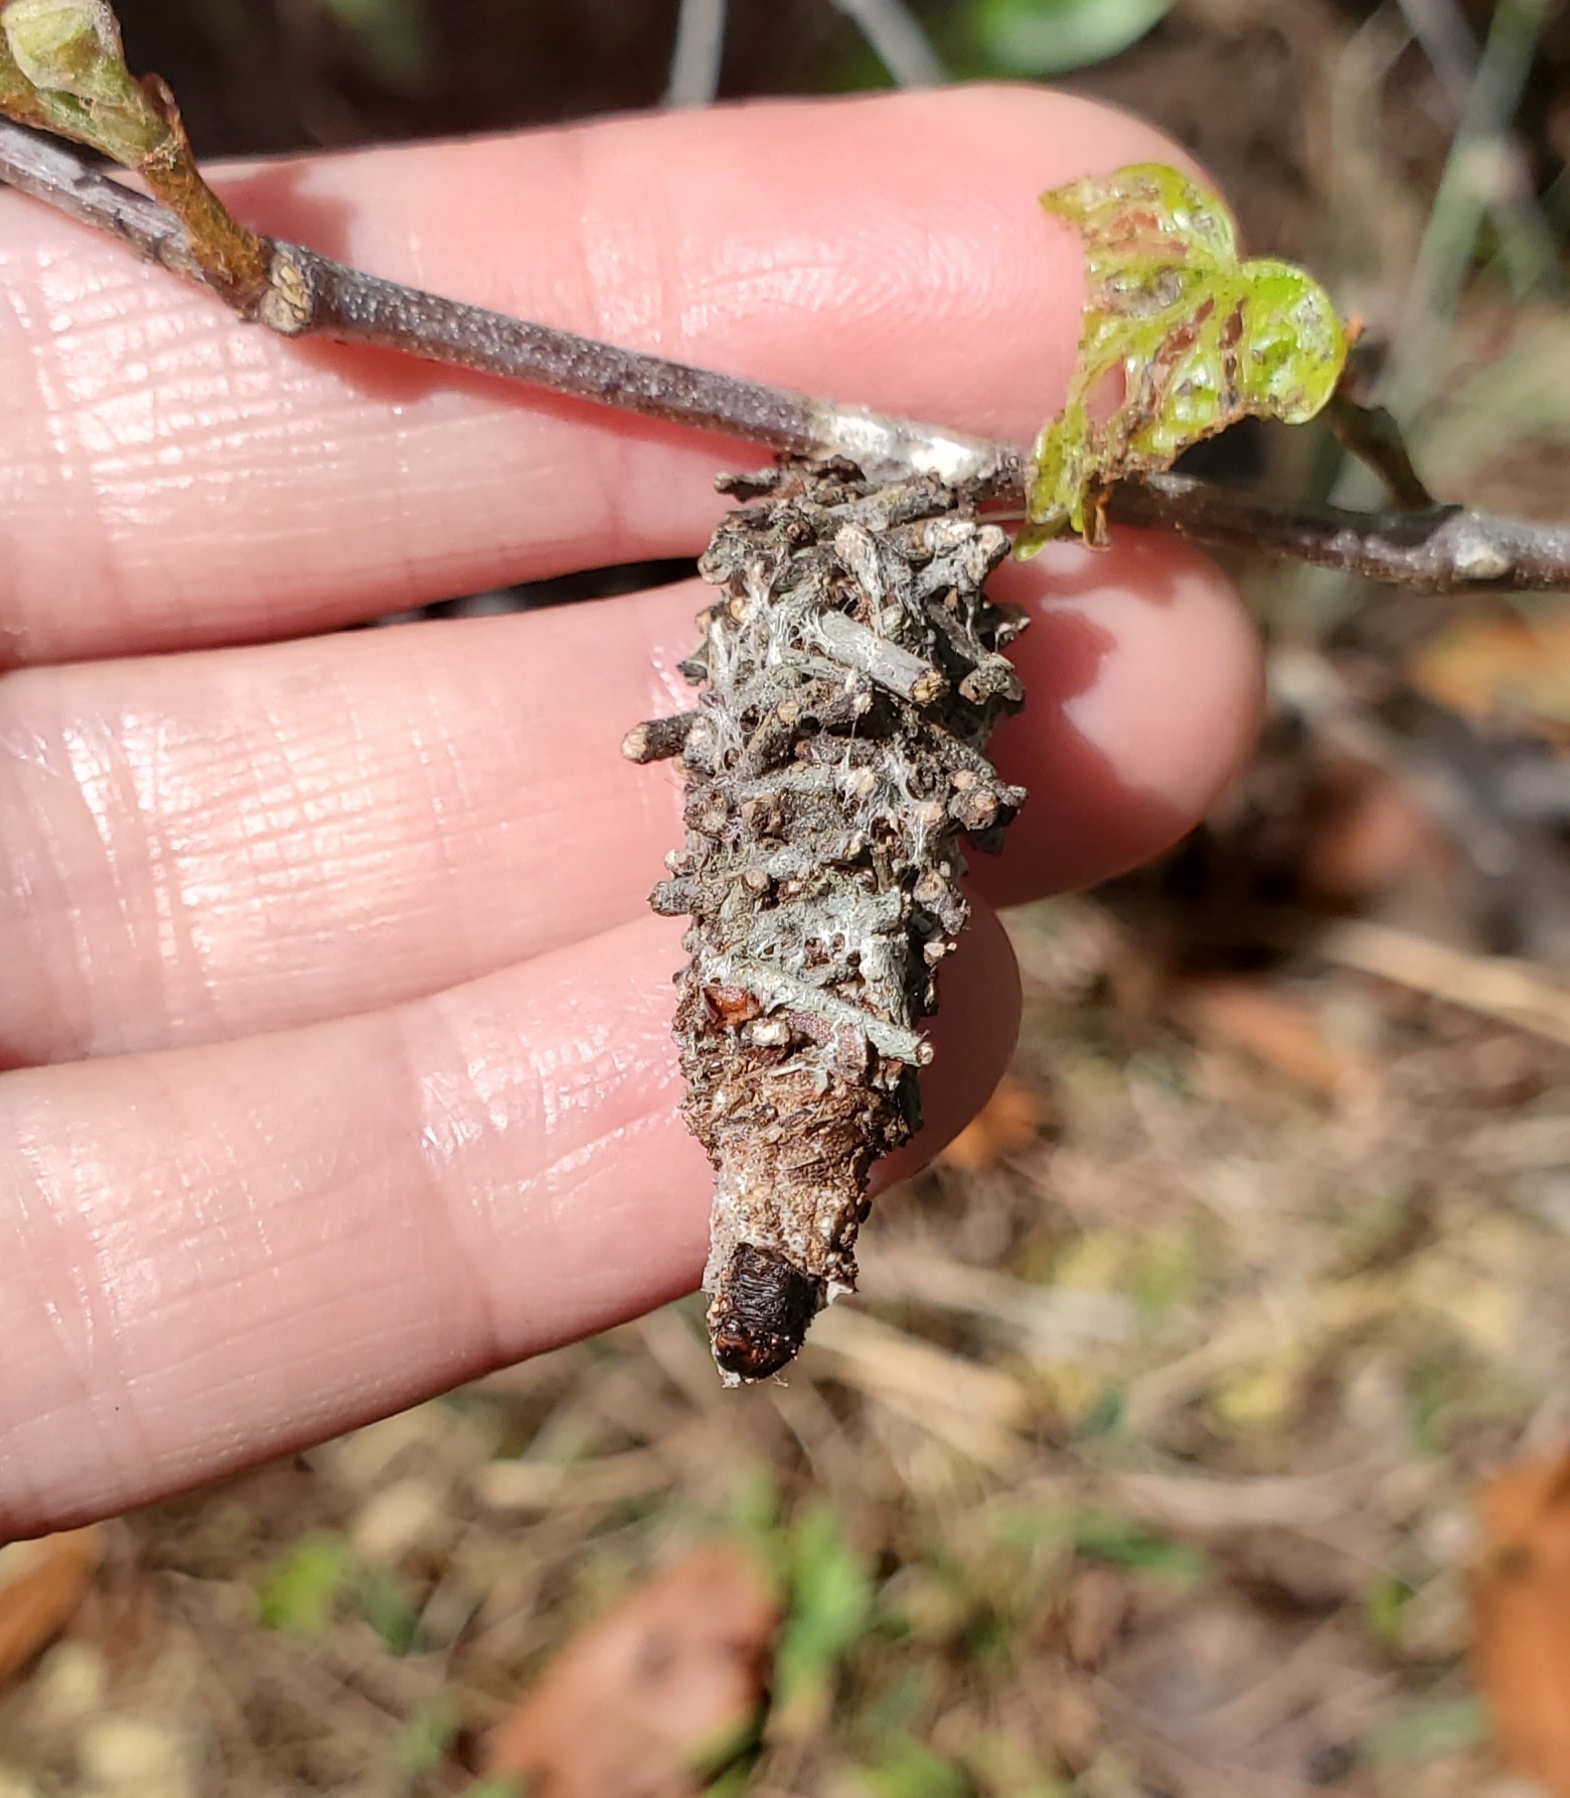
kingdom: Animalia
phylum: Arthropoda
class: Insecta
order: Lepidoptera
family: Psychidae
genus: Oiketicus
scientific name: Oiketicus
